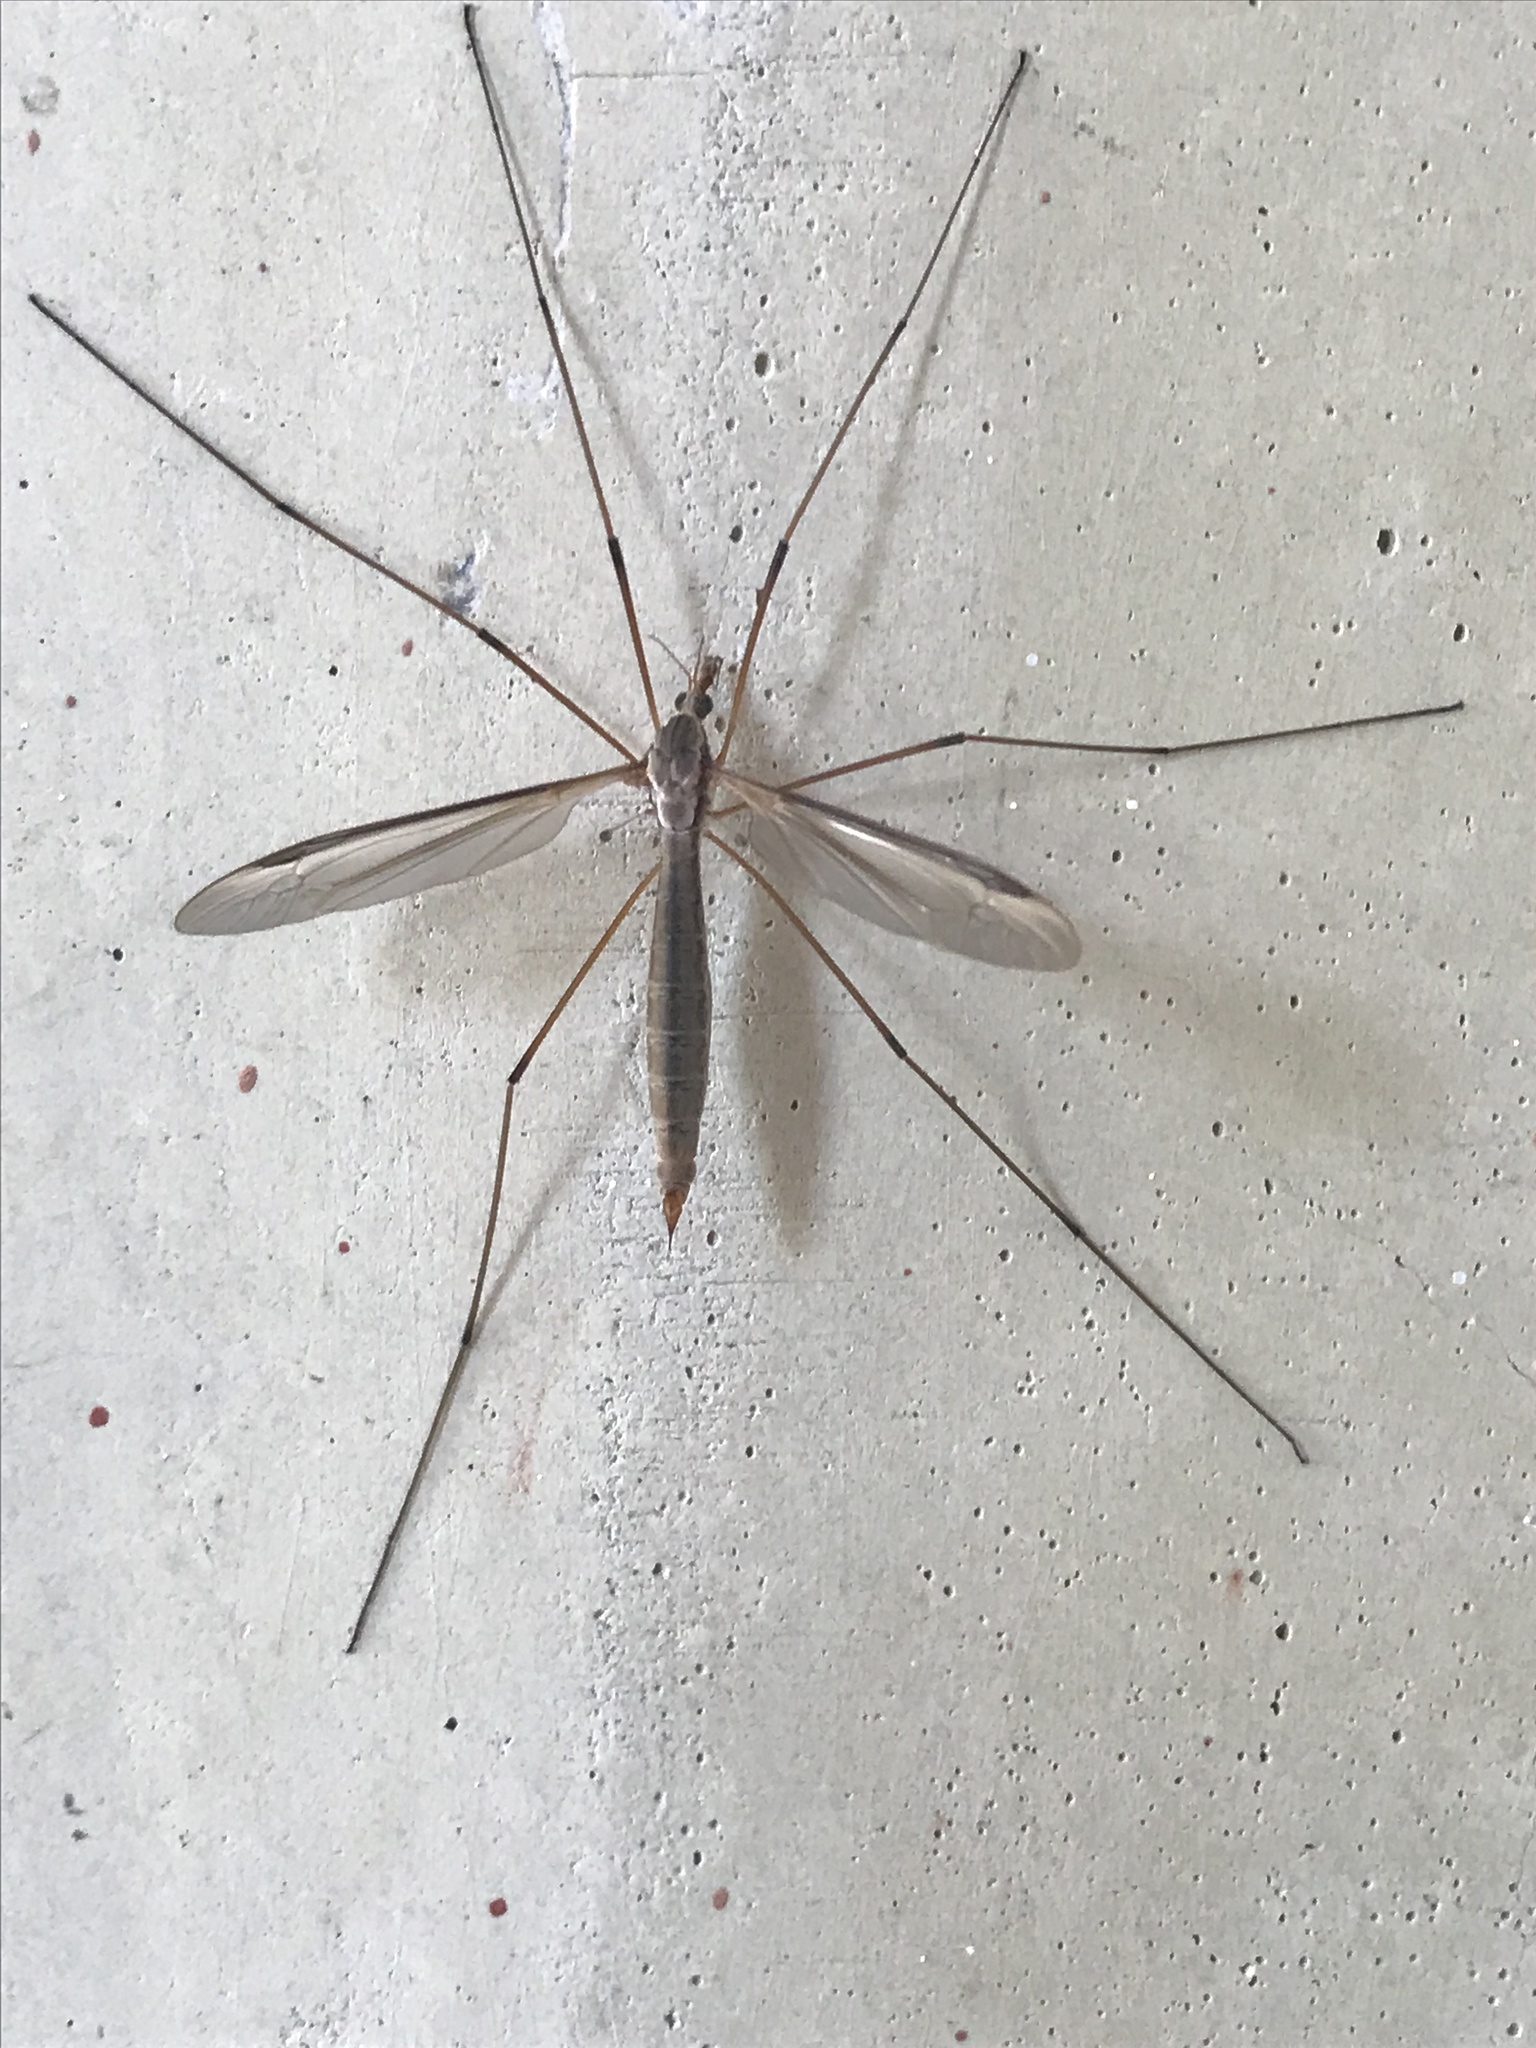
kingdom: Animalia
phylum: Arthropoda
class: Insecta
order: Diptera
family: Tipulidae
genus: Tipula
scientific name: Tipula
